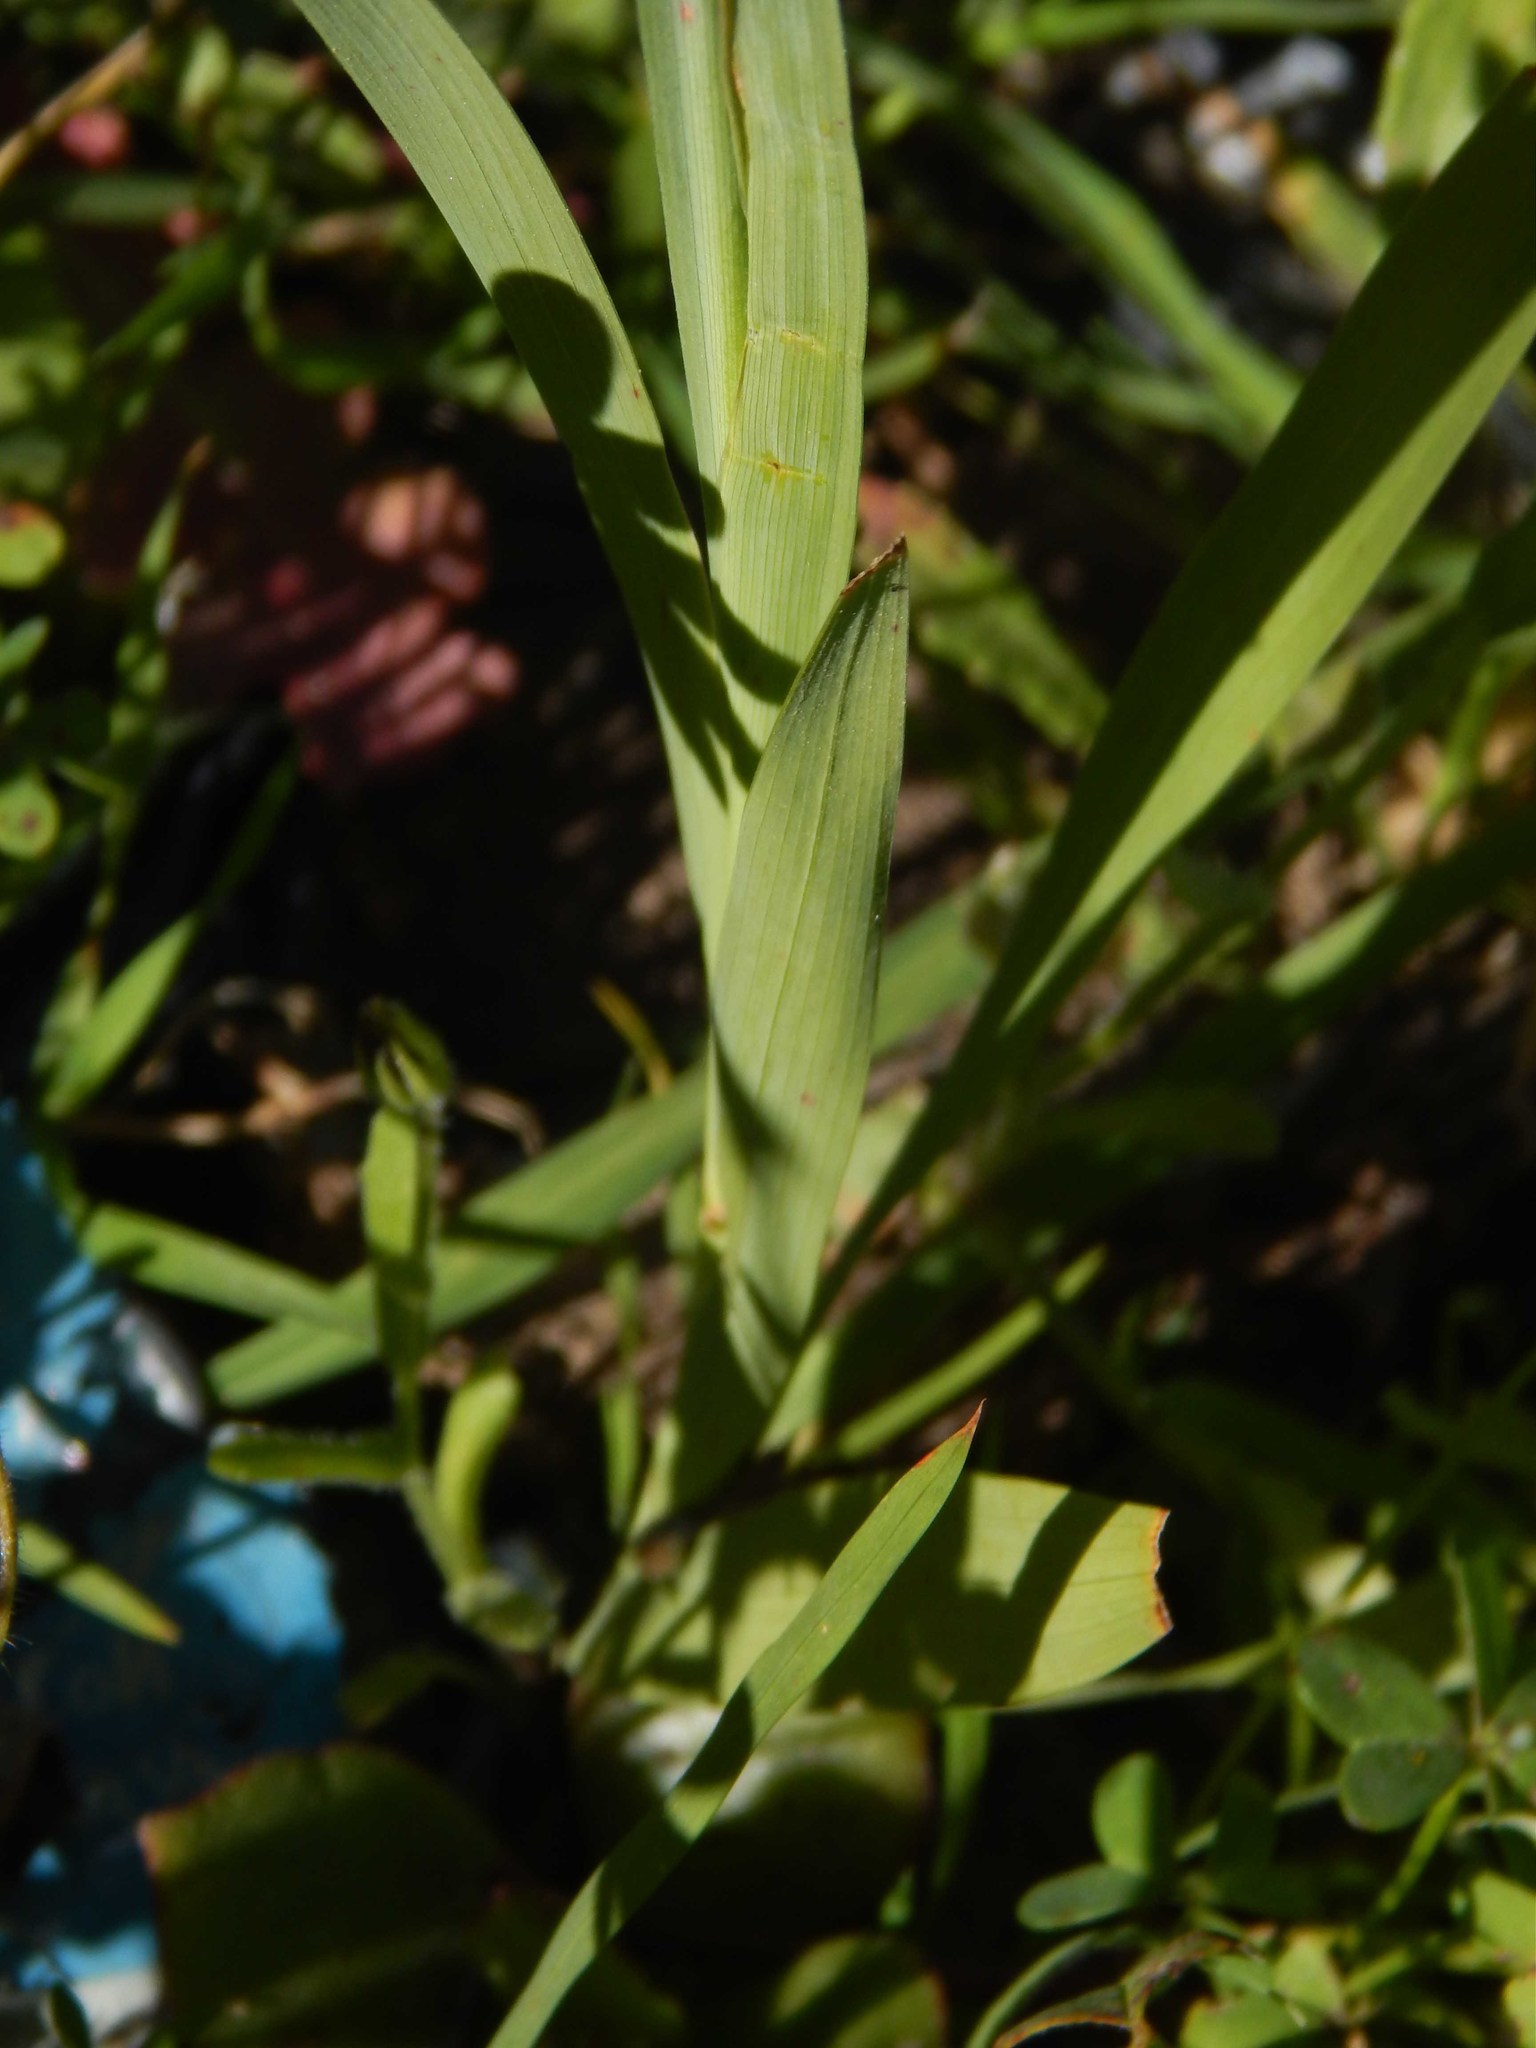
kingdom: Plantae
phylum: Tracheophyta
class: Liliopsida
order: Asparagales
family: Iridaceae
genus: Ixia
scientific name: Ixia fuscocitrina
